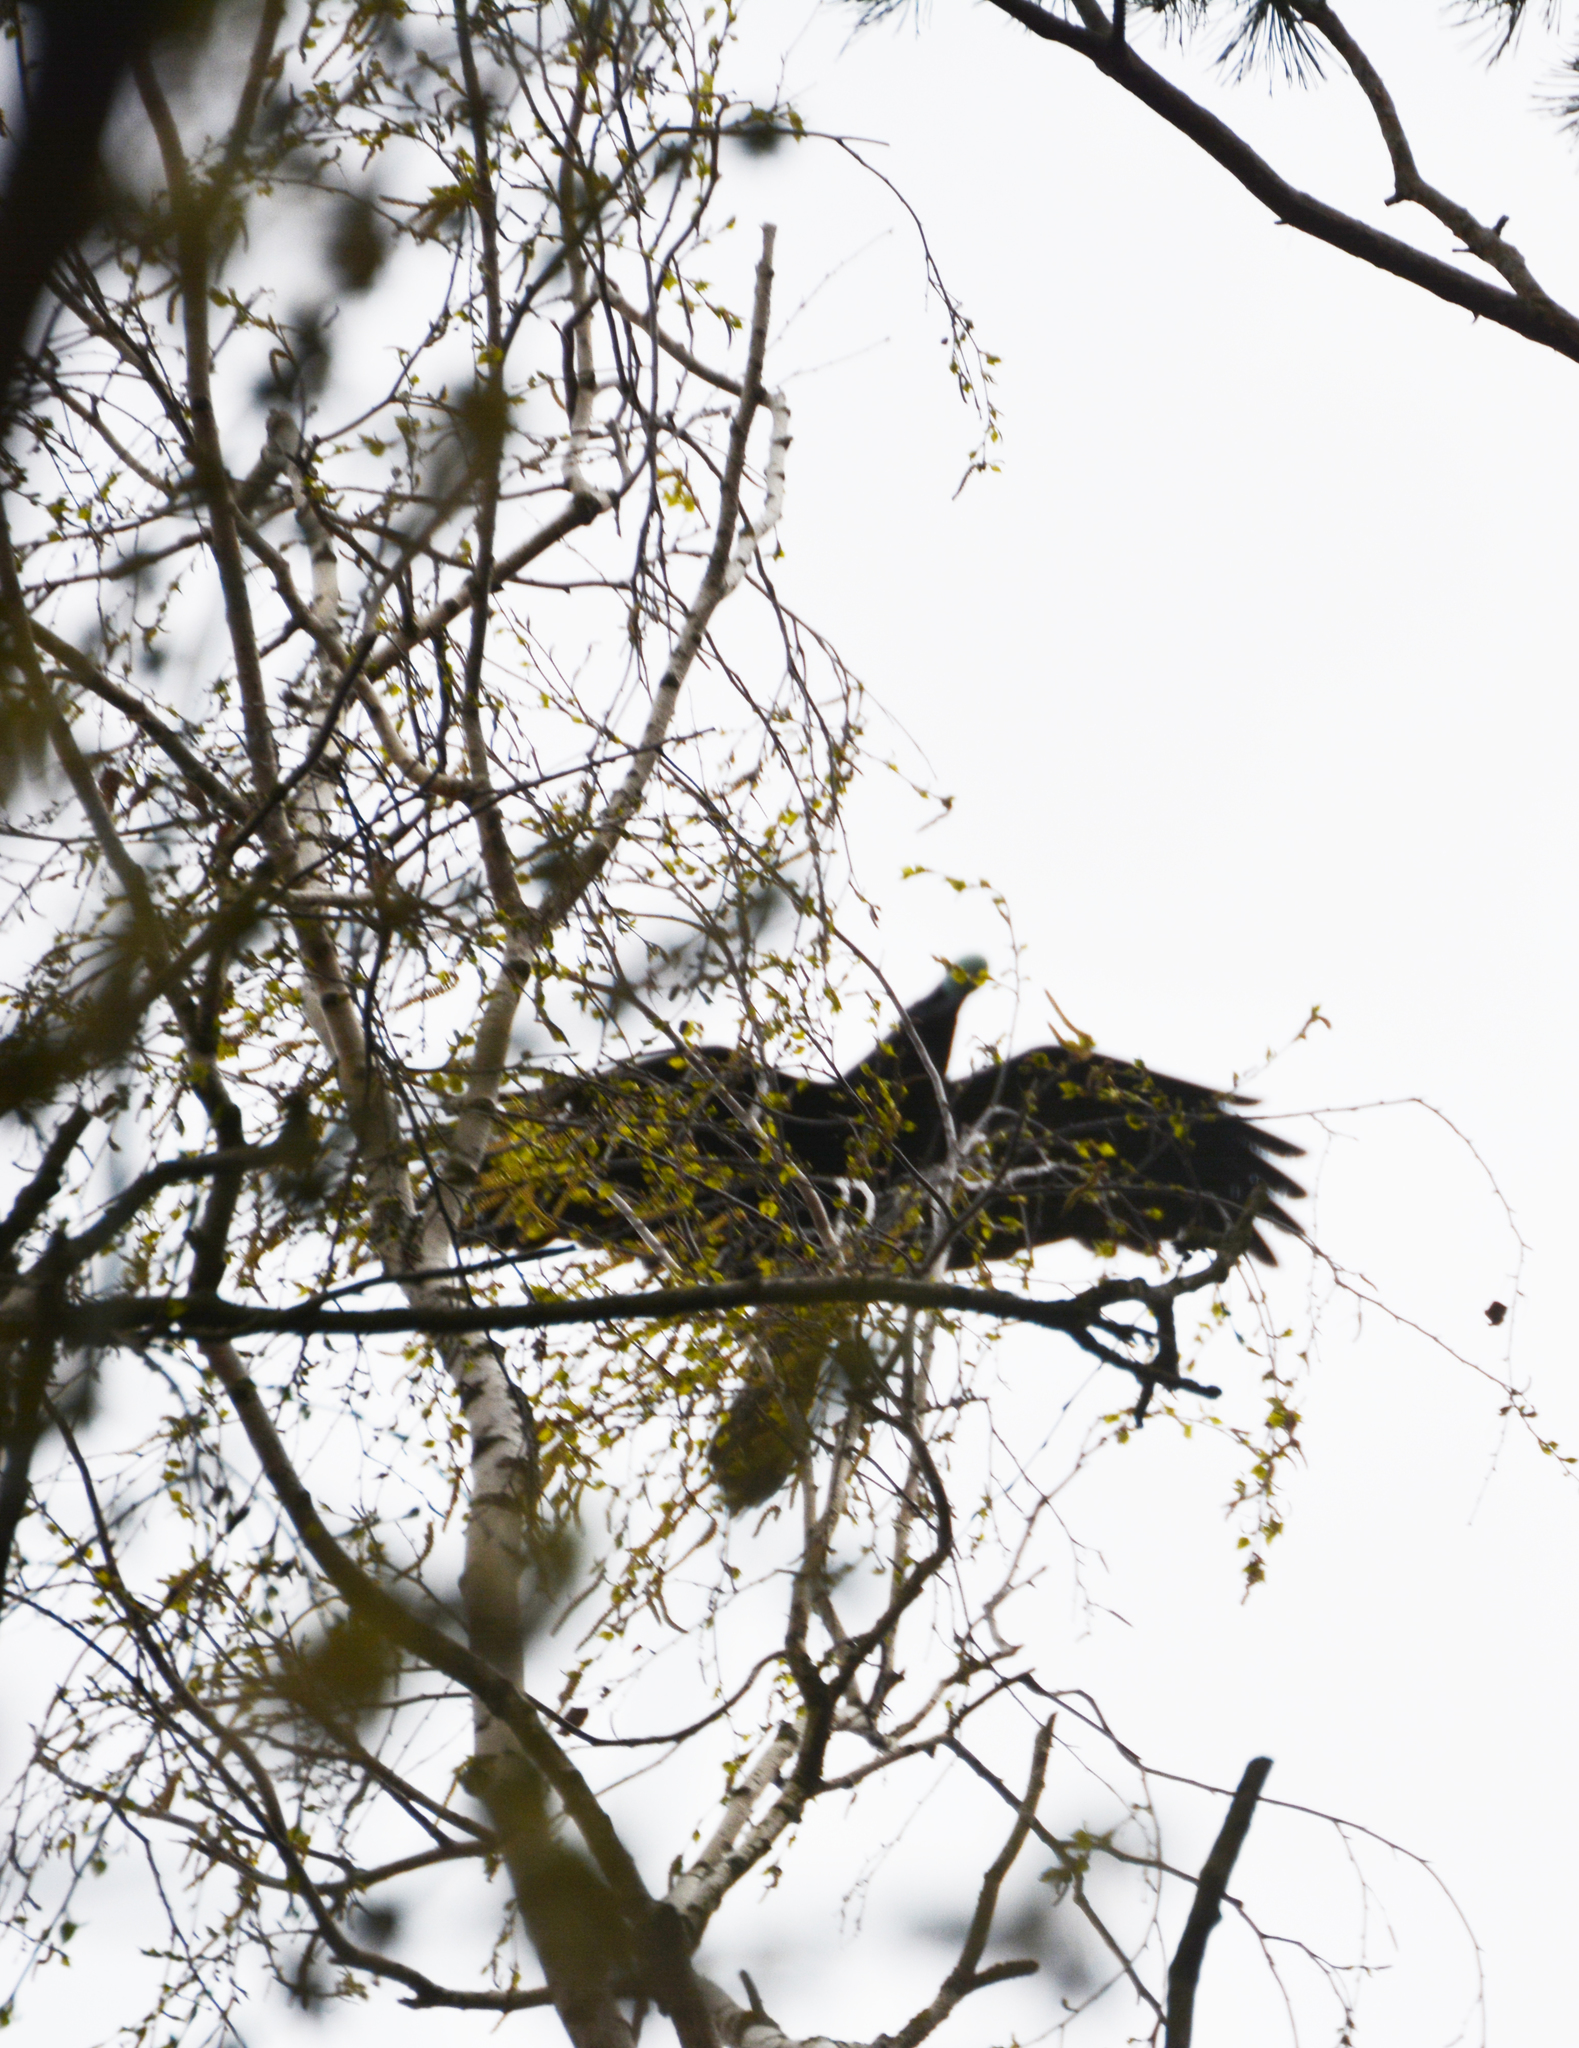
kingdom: Animalia
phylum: Chordata
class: Aves
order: Passeriformes
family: Corvidae
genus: Corvus
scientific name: Corvus corax
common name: Common raven
